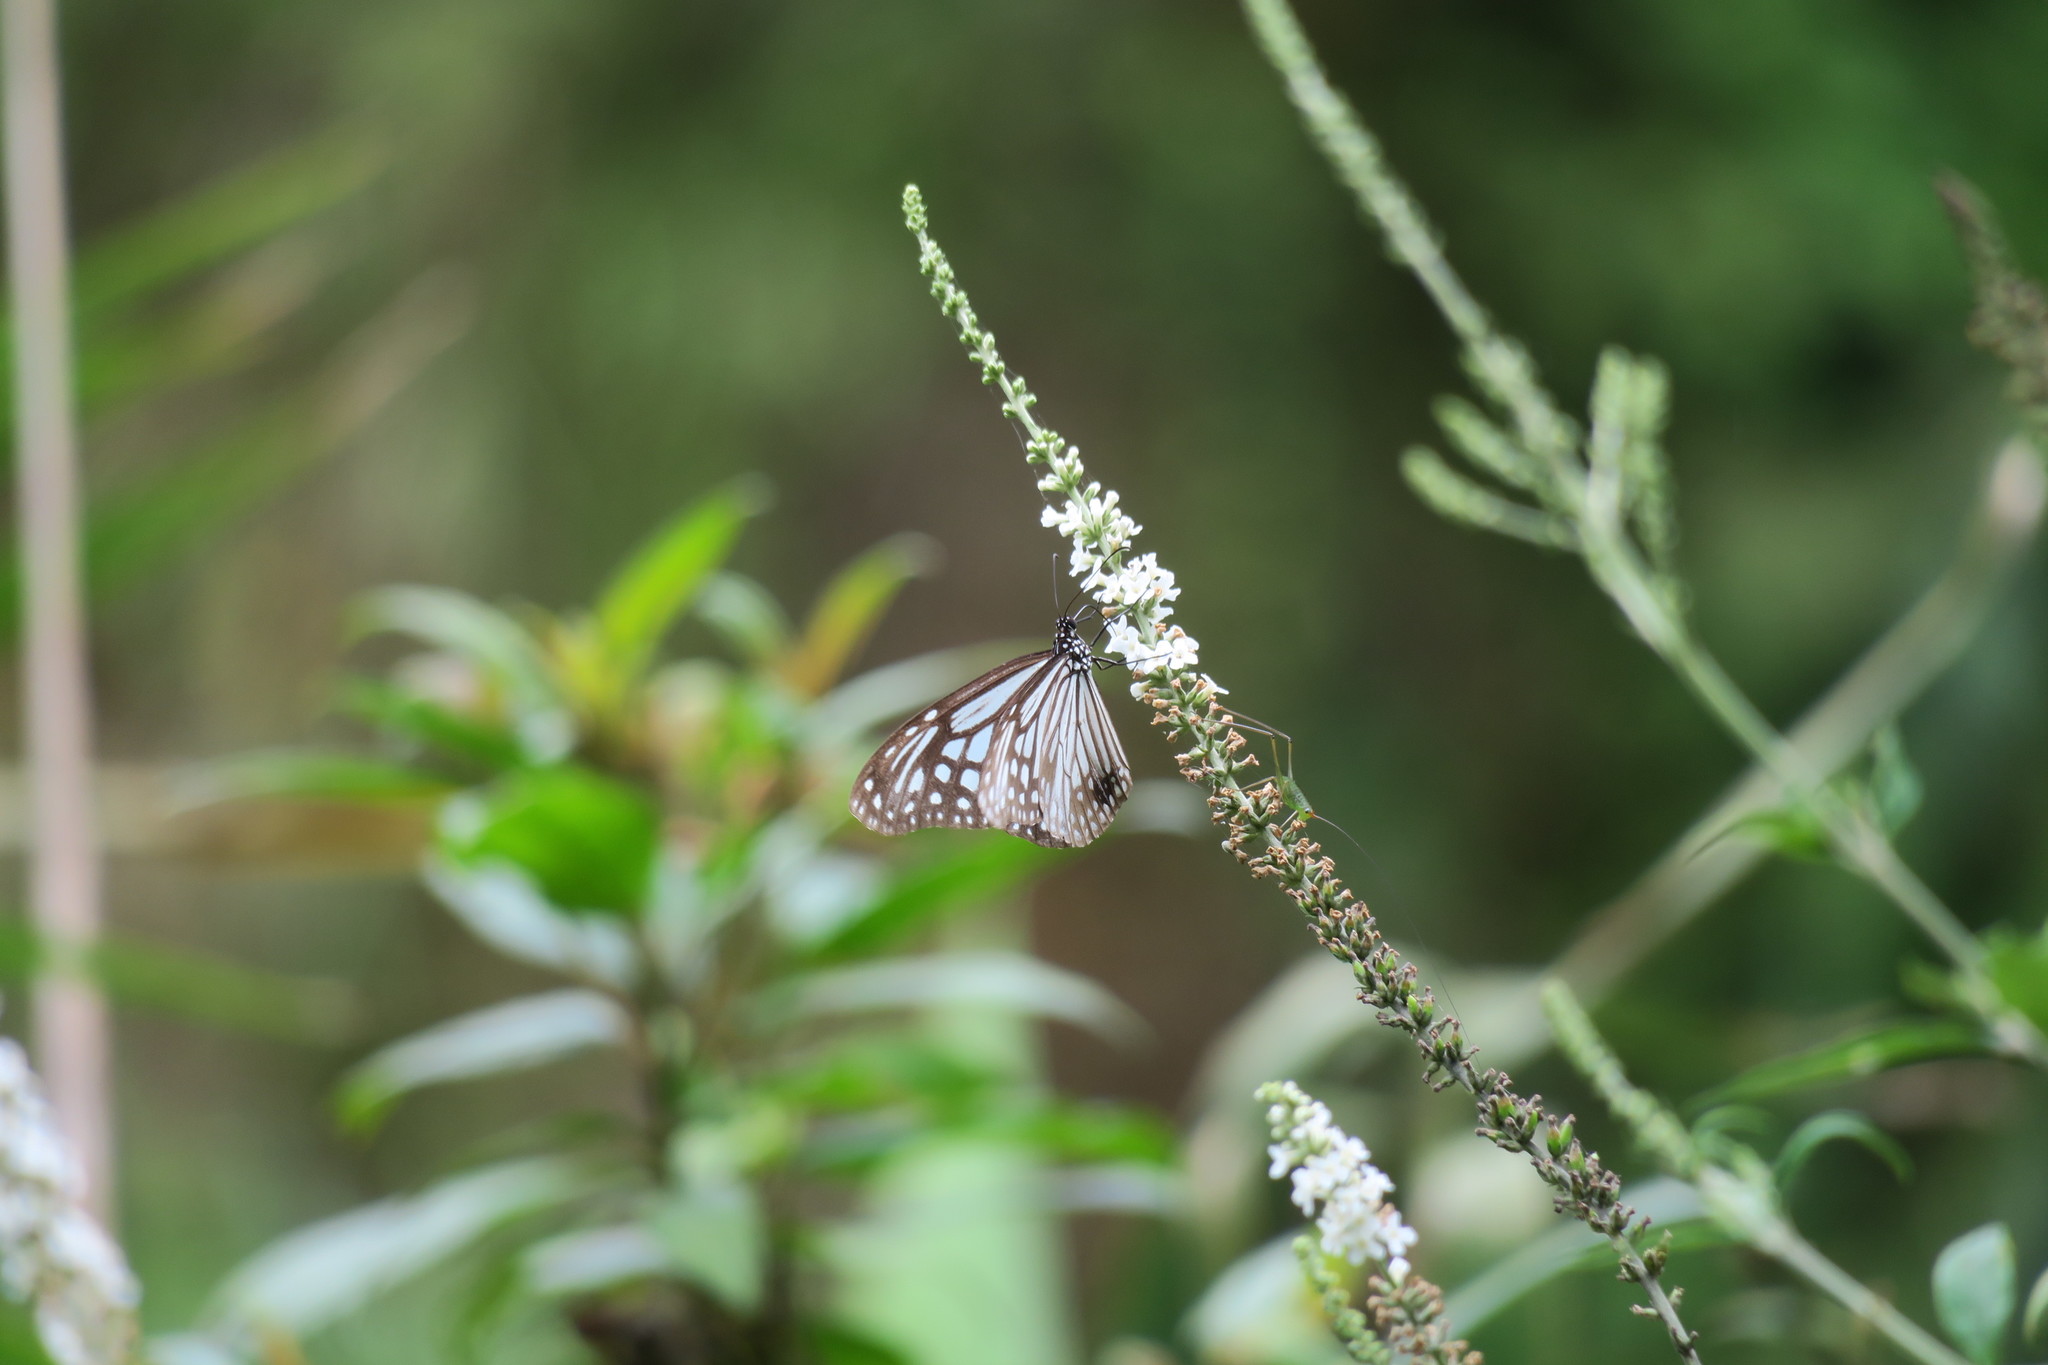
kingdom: Animalia
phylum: Arthropoda
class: Insecta
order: Lepidoptera
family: Nymphalidae
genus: Parantica
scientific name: Parantica aglea
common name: Glassy tiger
